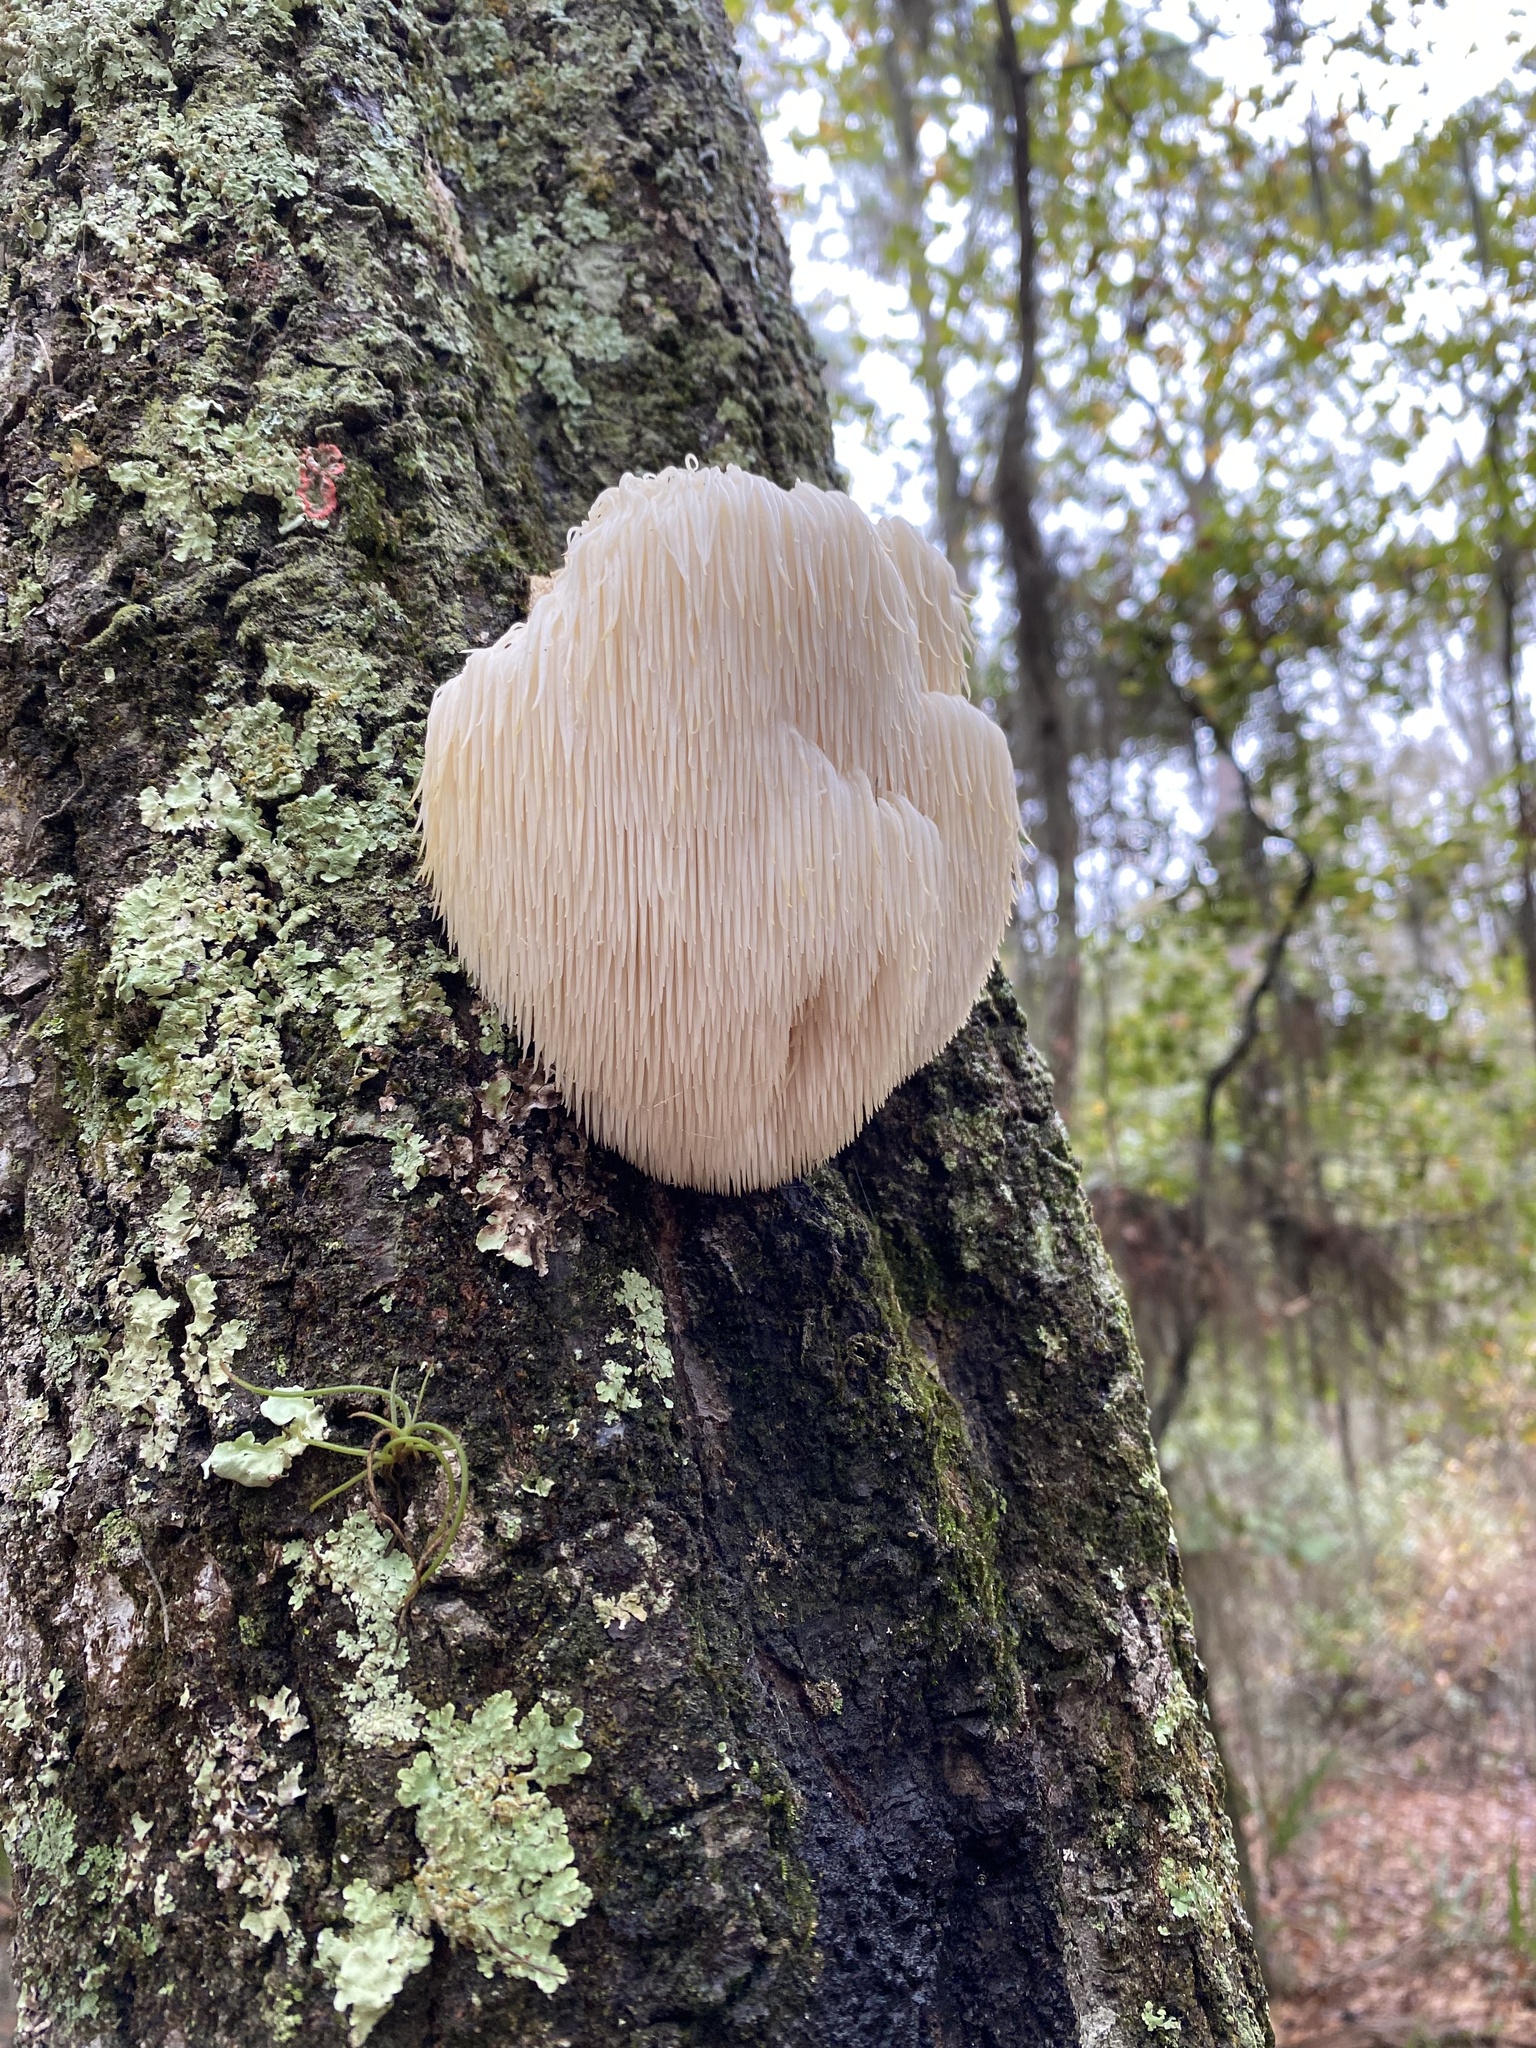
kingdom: Fungi
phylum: Basidiomycota
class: Agaricomycetes
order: Russulales
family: Hericiaceae
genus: Hericium
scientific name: Hericium erinaceus
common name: Bearded tooth
